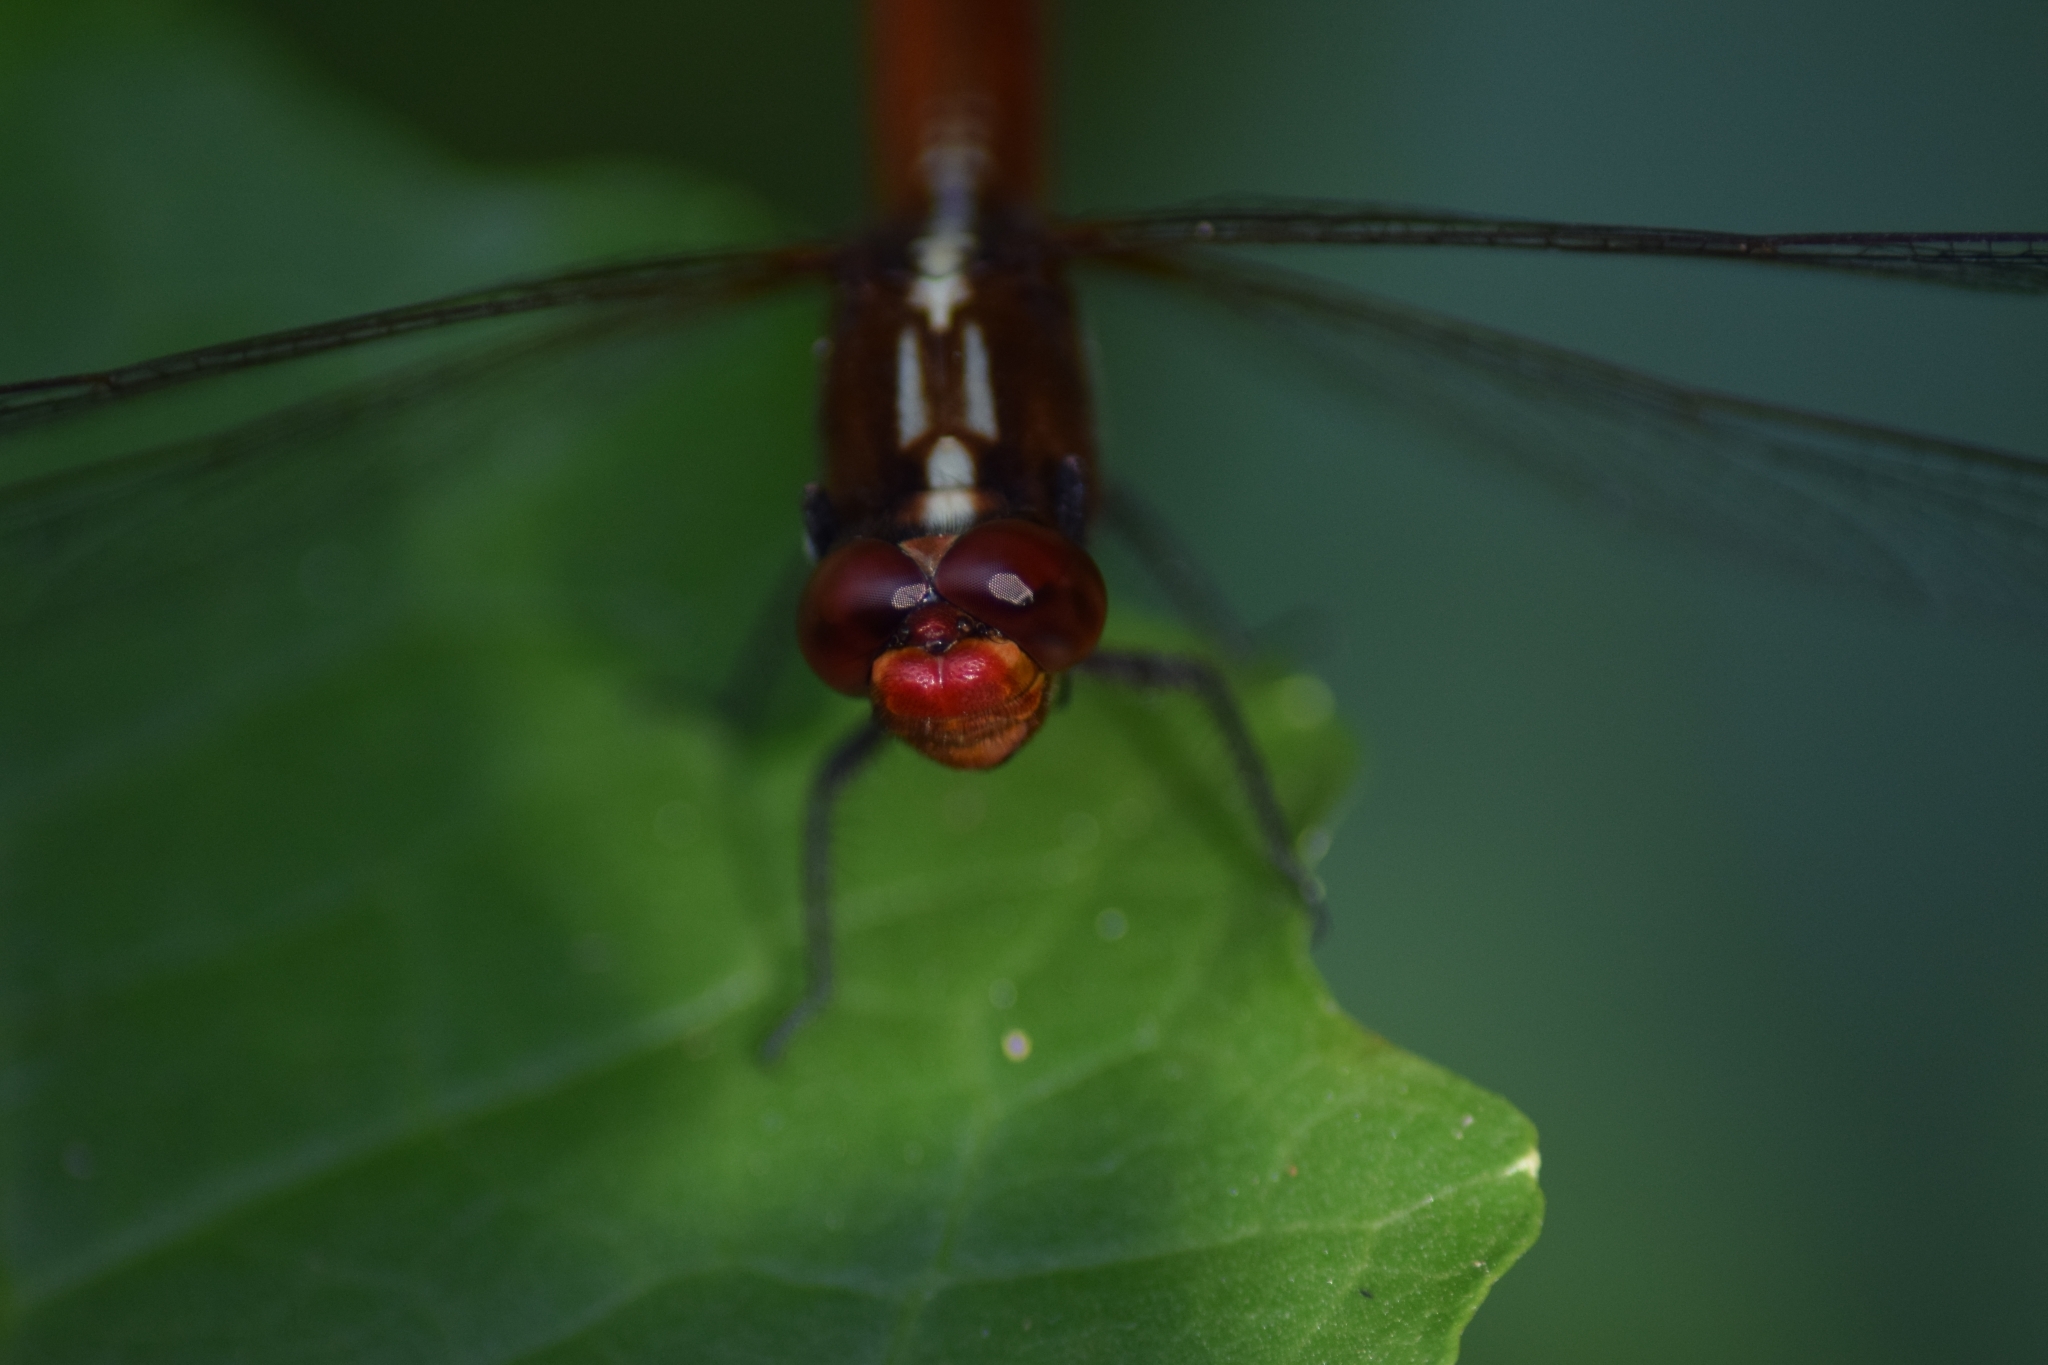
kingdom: Animalia
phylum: Arthropoda
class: Insecta
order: Odonata
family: Libellulidae
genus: Rhodothemis
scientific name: Rhodothemis rufa
